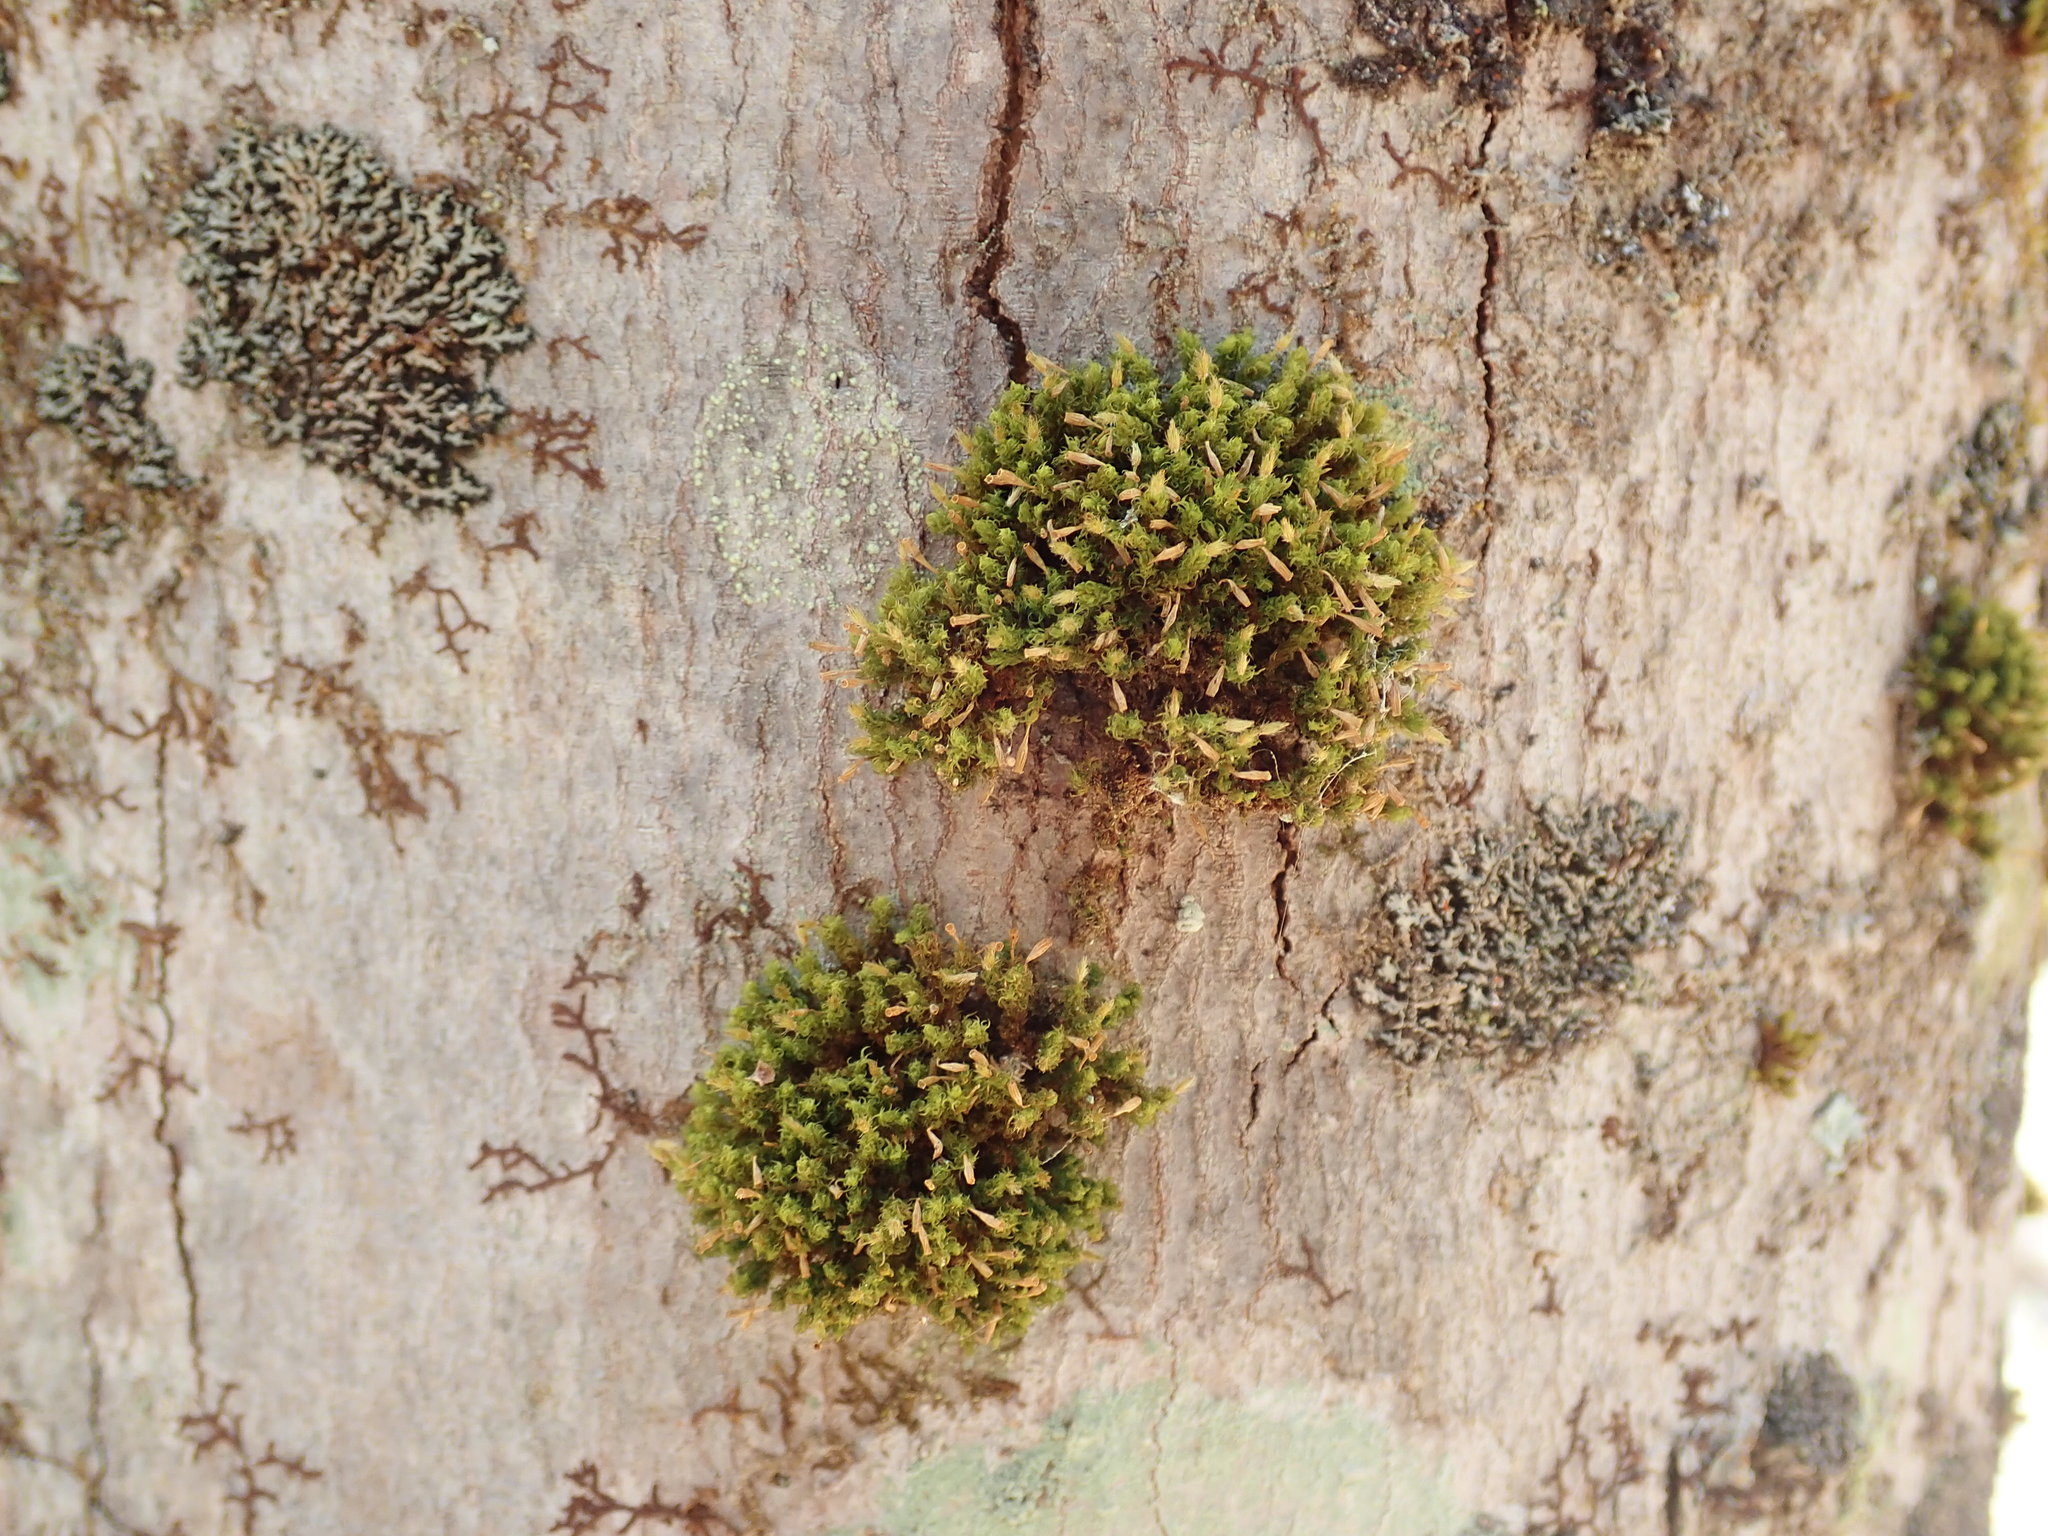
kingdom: Plantae
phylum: Bryophyta
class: Bryopsida
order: Orthotrichales
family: Orthotrichaceae
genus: Ulota
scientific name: Ulota
